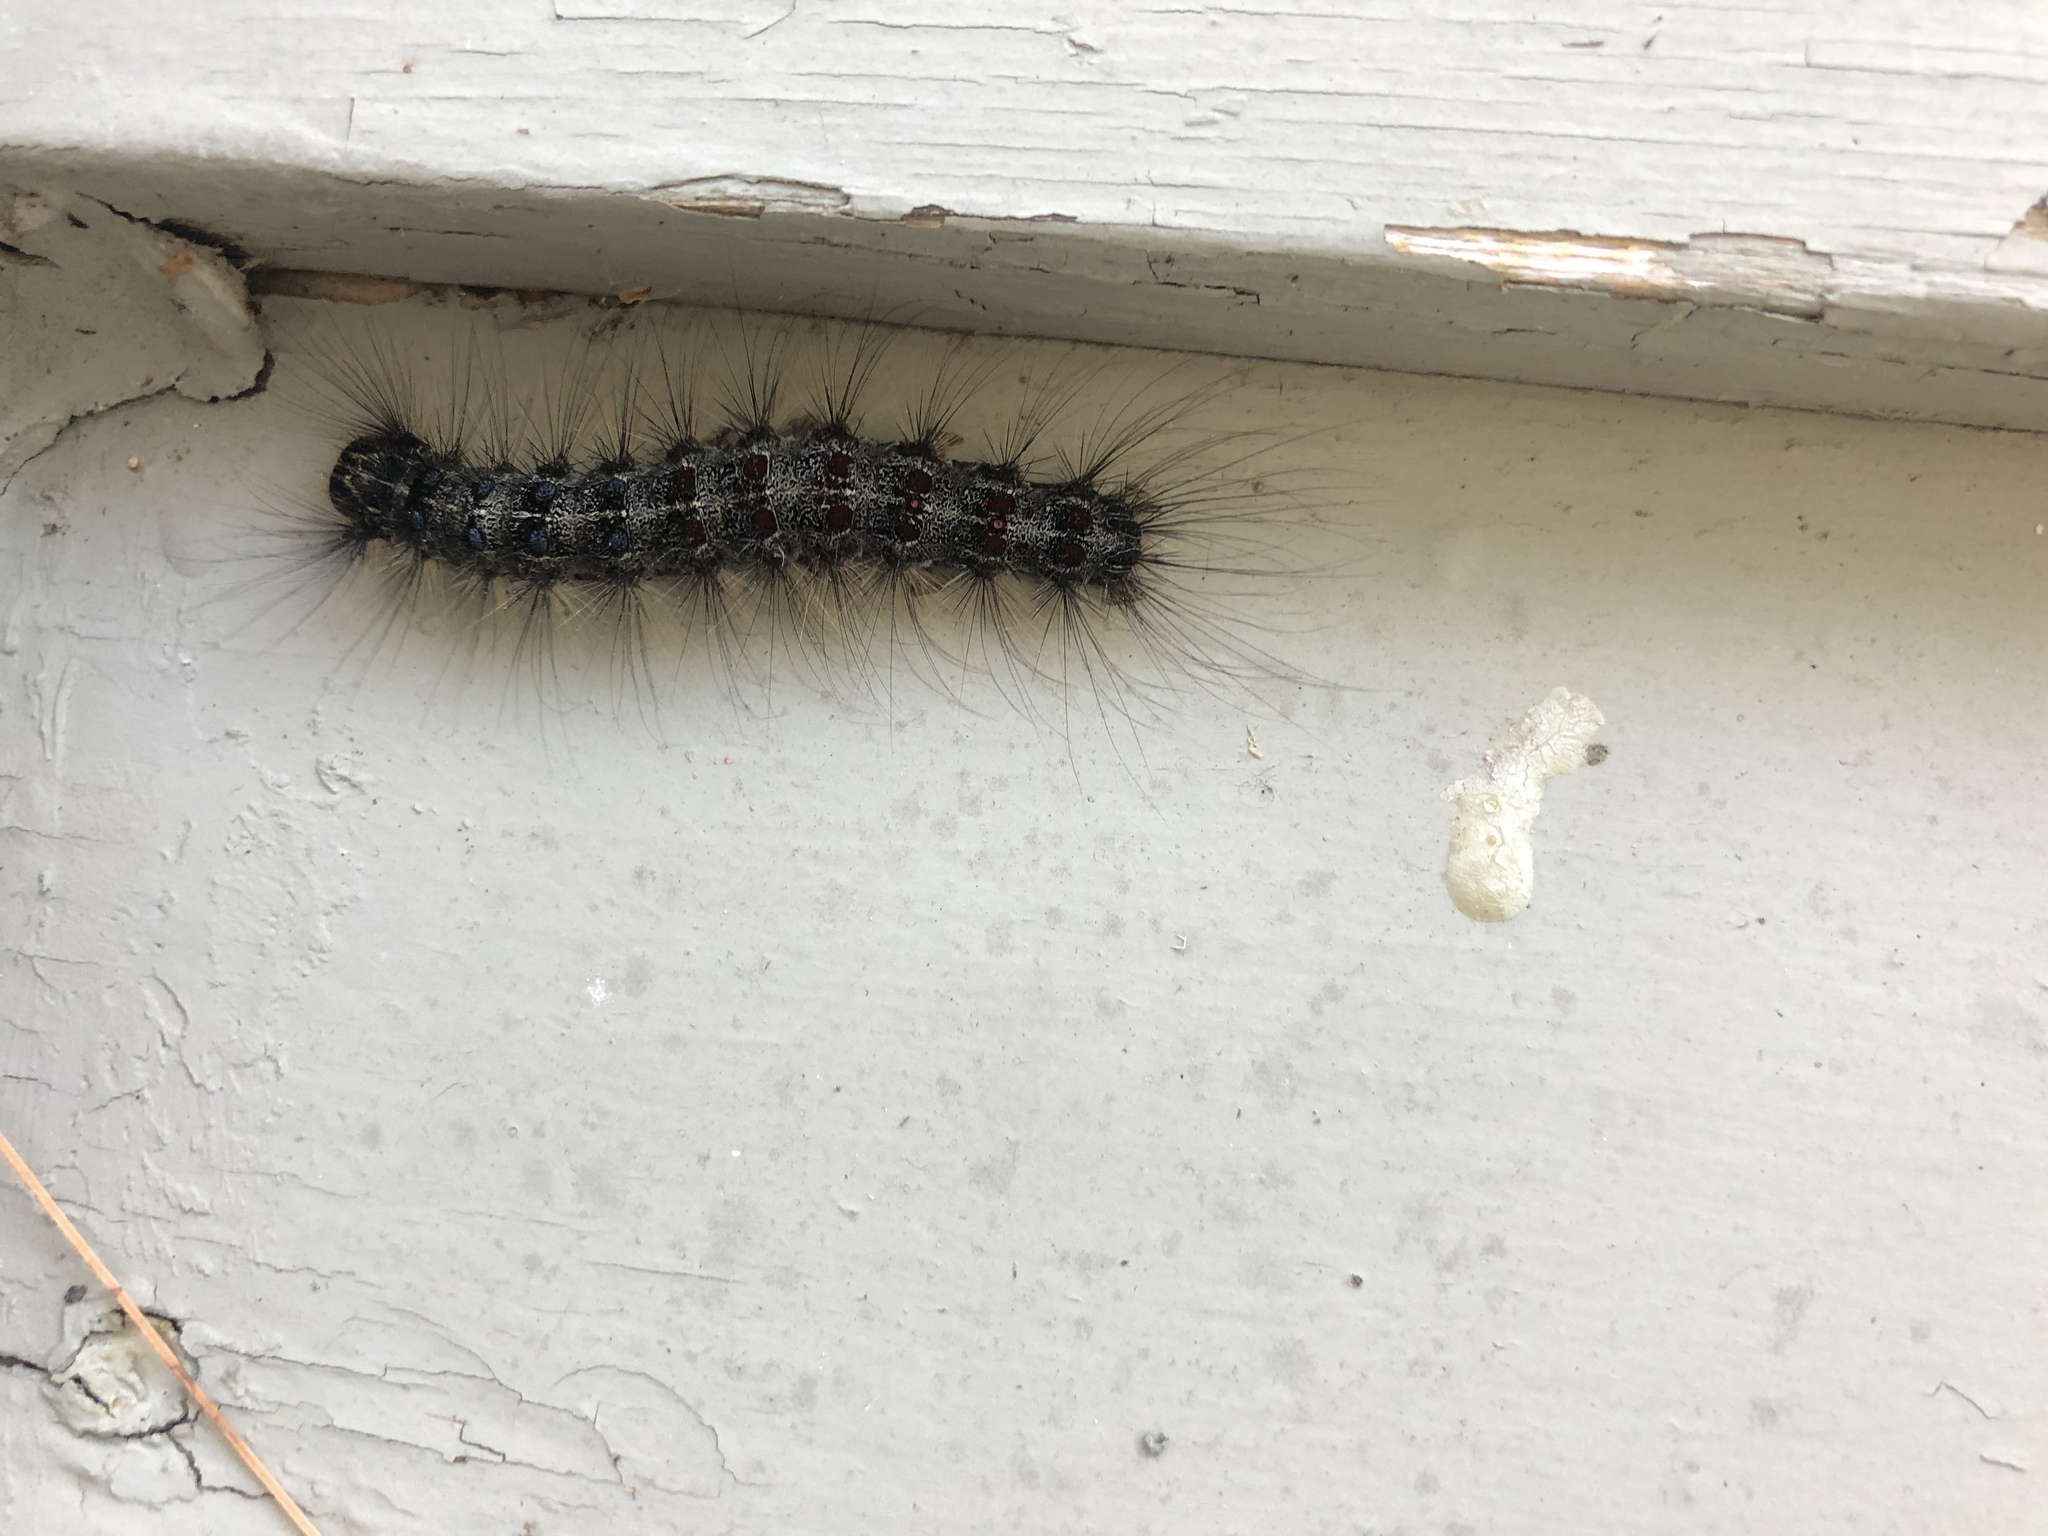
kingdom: Animalia
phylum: Arthropoda
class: Insecta
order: Lepidoptera
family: Erebidae
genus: Lymantria
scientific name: Lymantria dispar
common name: Gypsy moth
